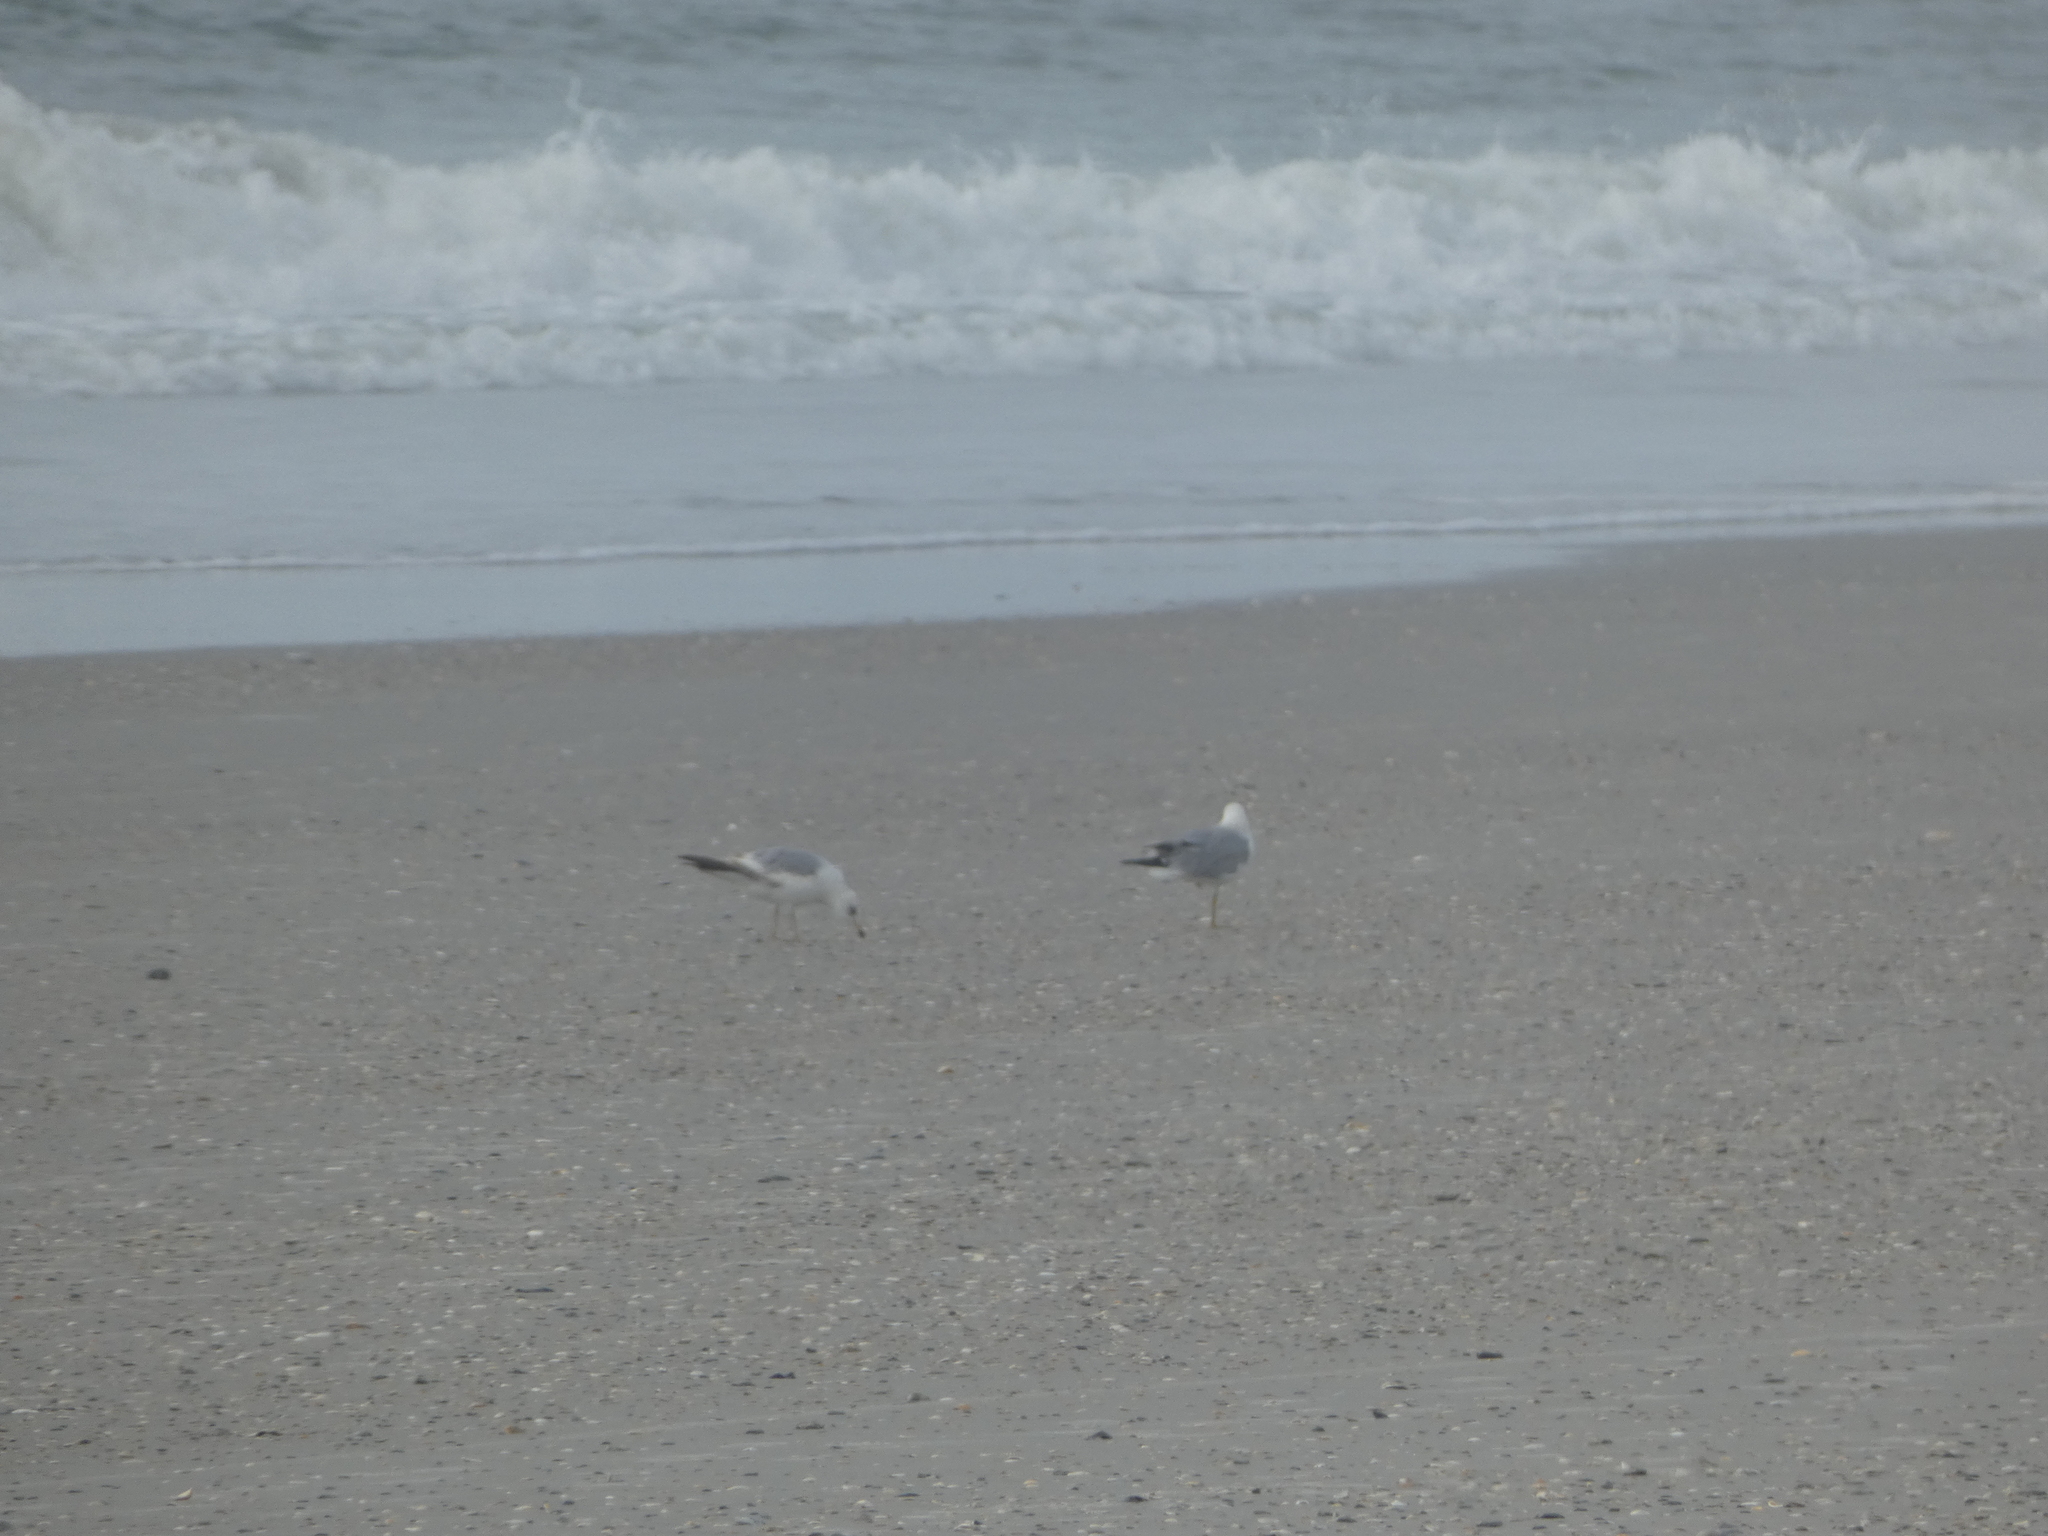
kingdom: Animalia
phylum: Chordata
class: Aves
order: Charadriiformes
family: Laridae
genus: Larus
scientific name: Larus delawarensis
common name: Ring-billed gull
